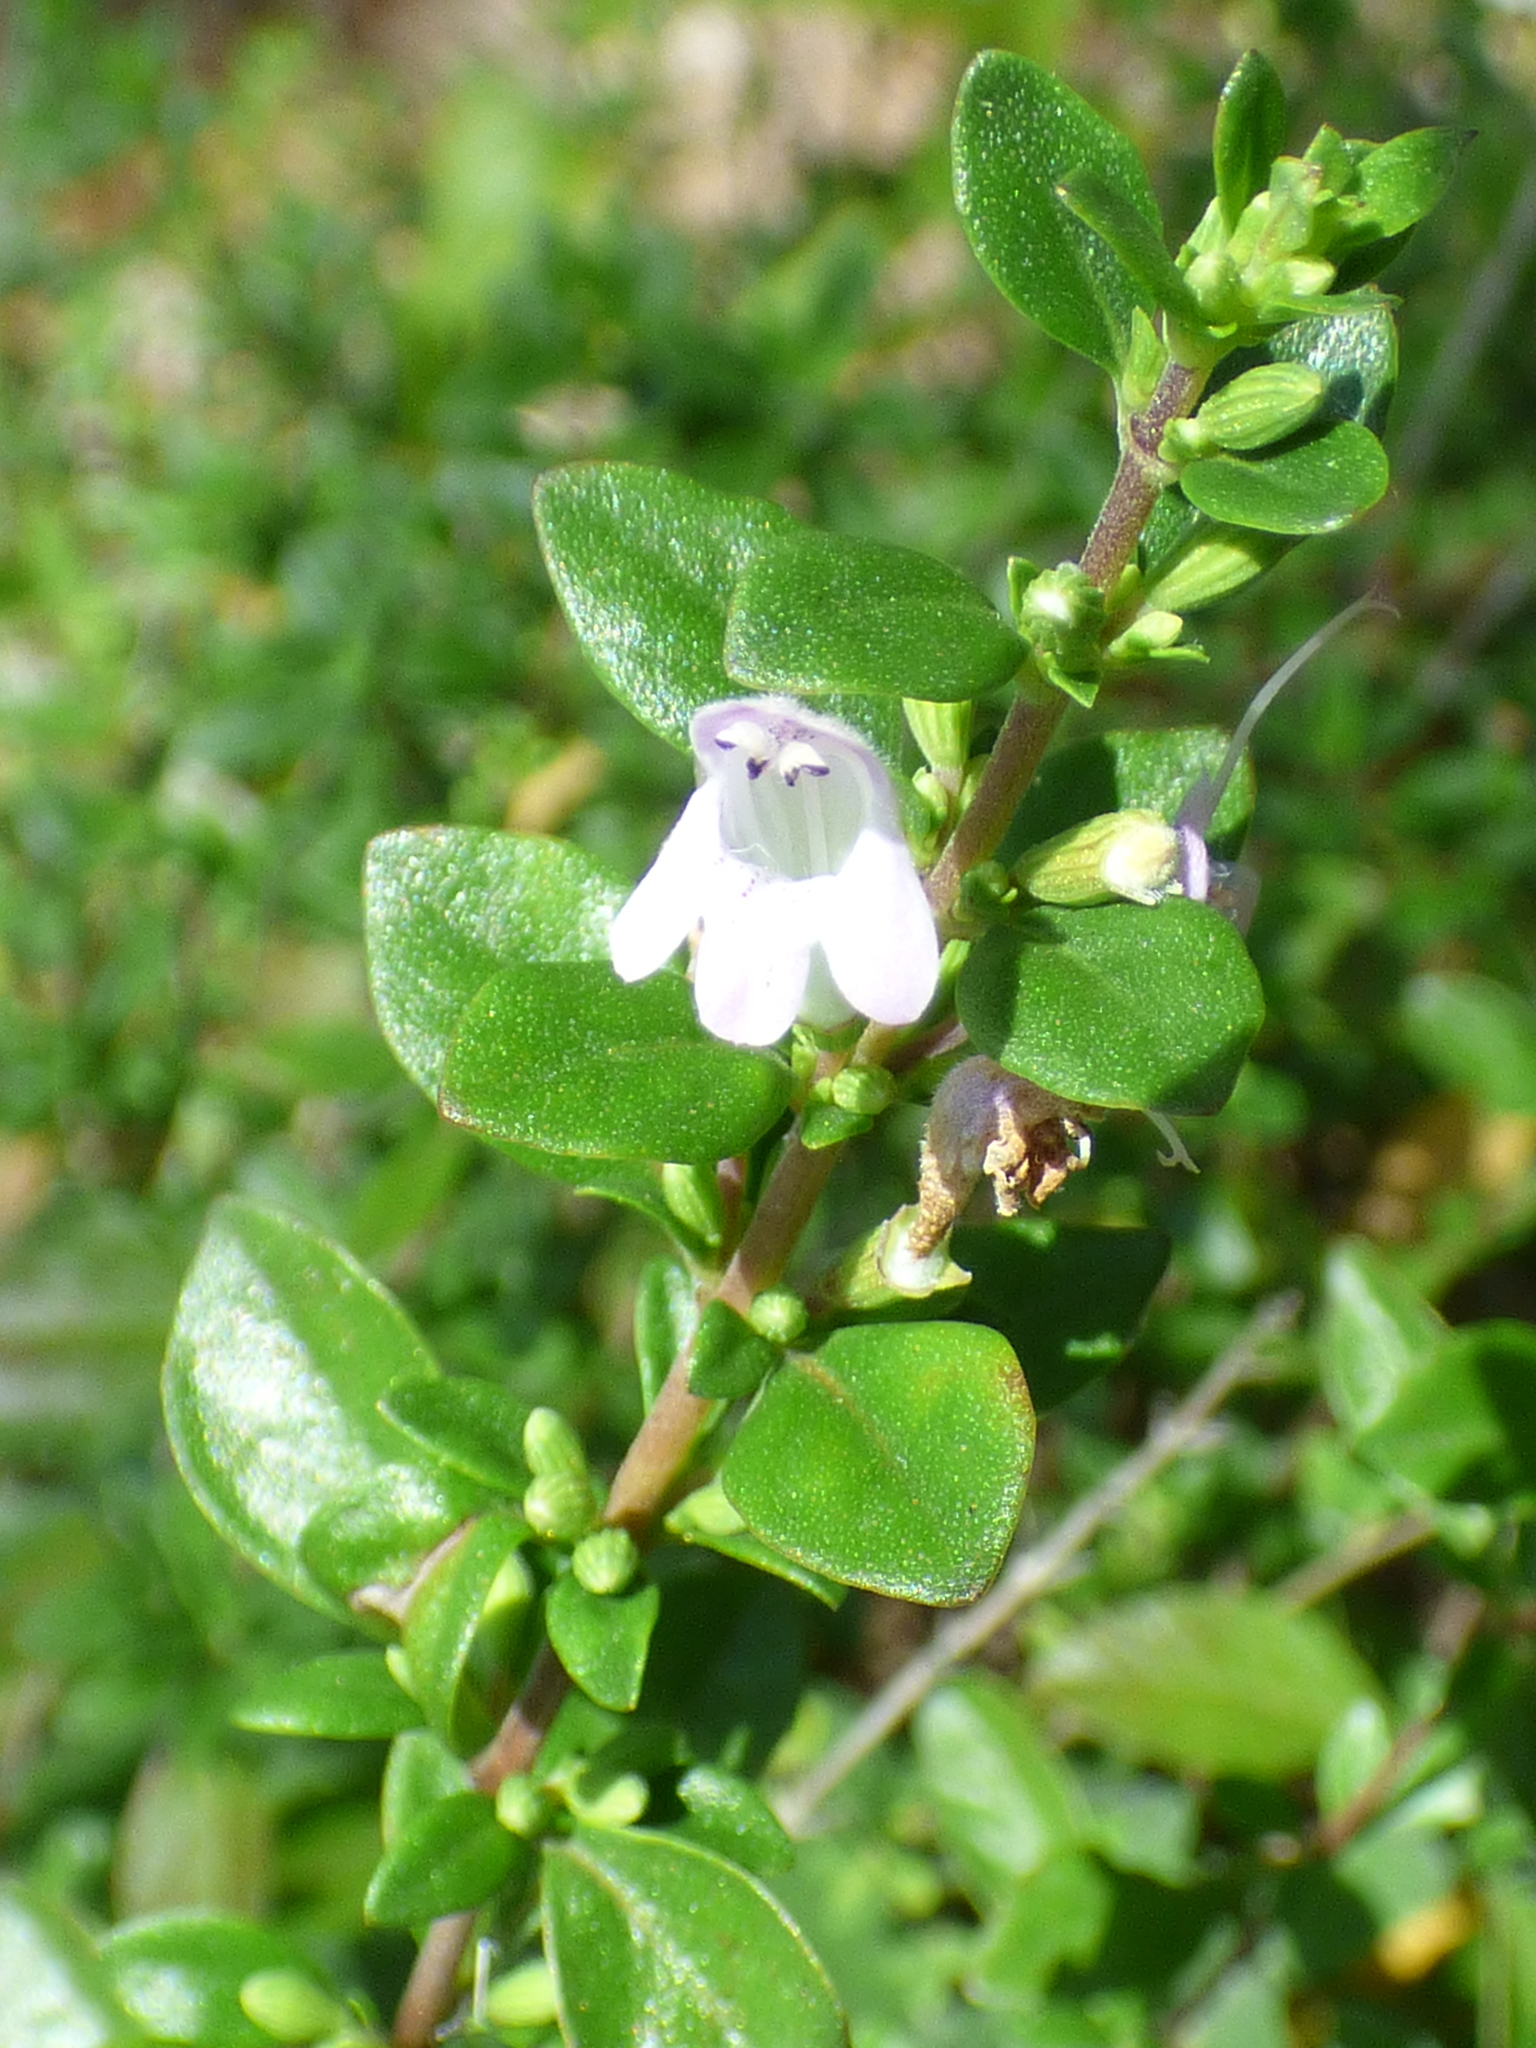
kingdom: Plantae
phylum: Tracheophyta
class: Magnoliopsida
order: Lamiales
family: Lamiaceae
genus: Clinopodium
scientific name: Clinopodium carolinianum
